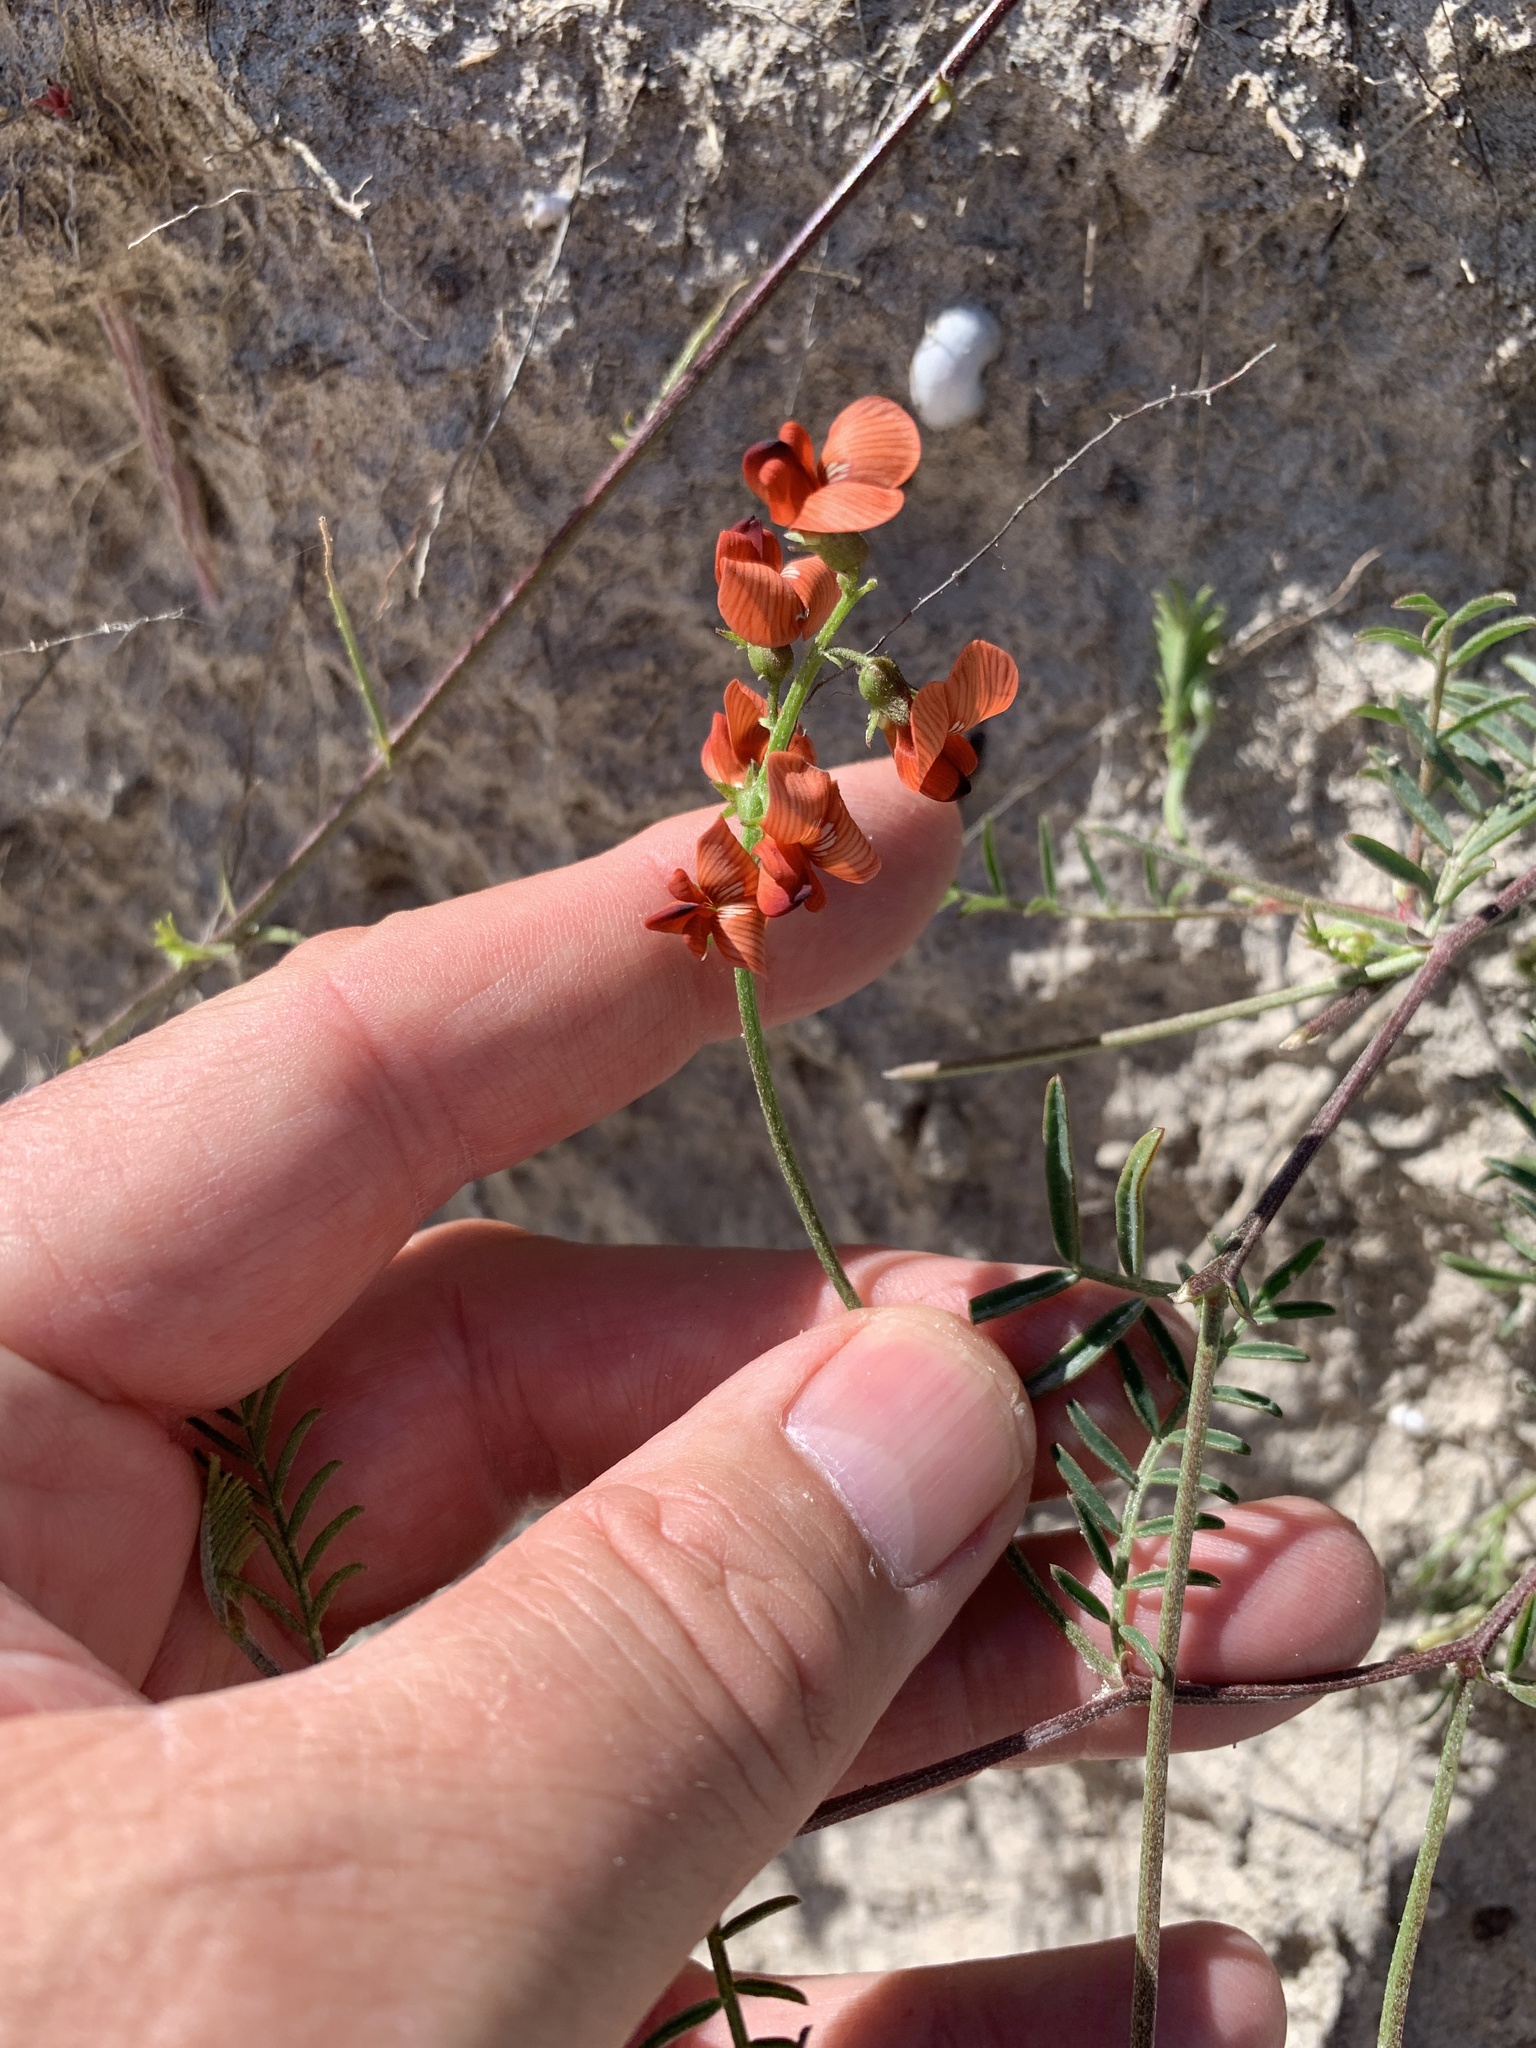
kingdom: Plantae
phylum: Tracheophyta
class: Magnoliopsida
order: Fabales
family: Fabaceae
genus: Lessertia
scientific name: Lessertia miniata
